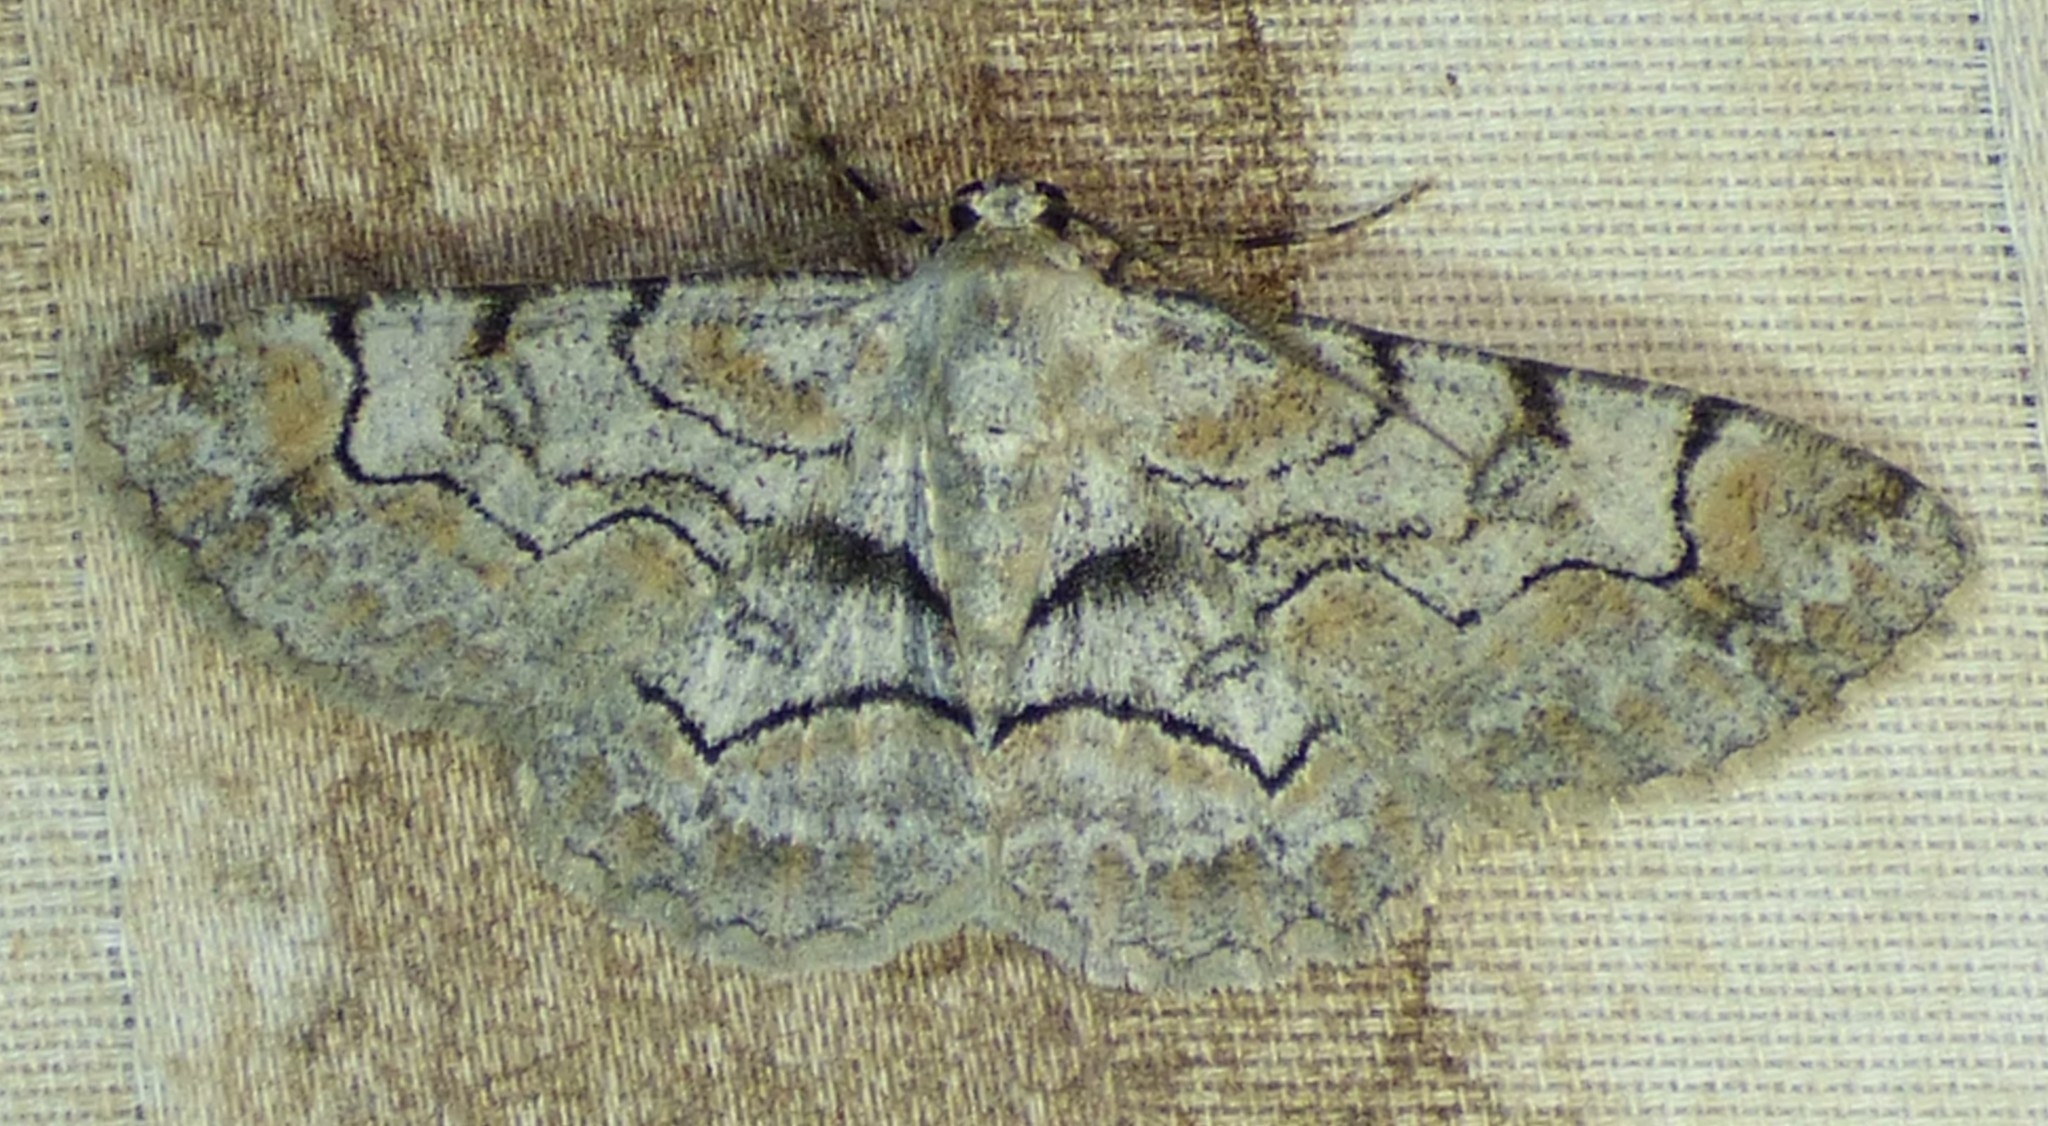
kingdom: Animalia
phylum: Arthropoda
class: Insecta
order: Lepidoptera
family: Geometridae
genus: Iridopsis
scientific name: Iridopsis larvaria
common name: Bent-line gray
